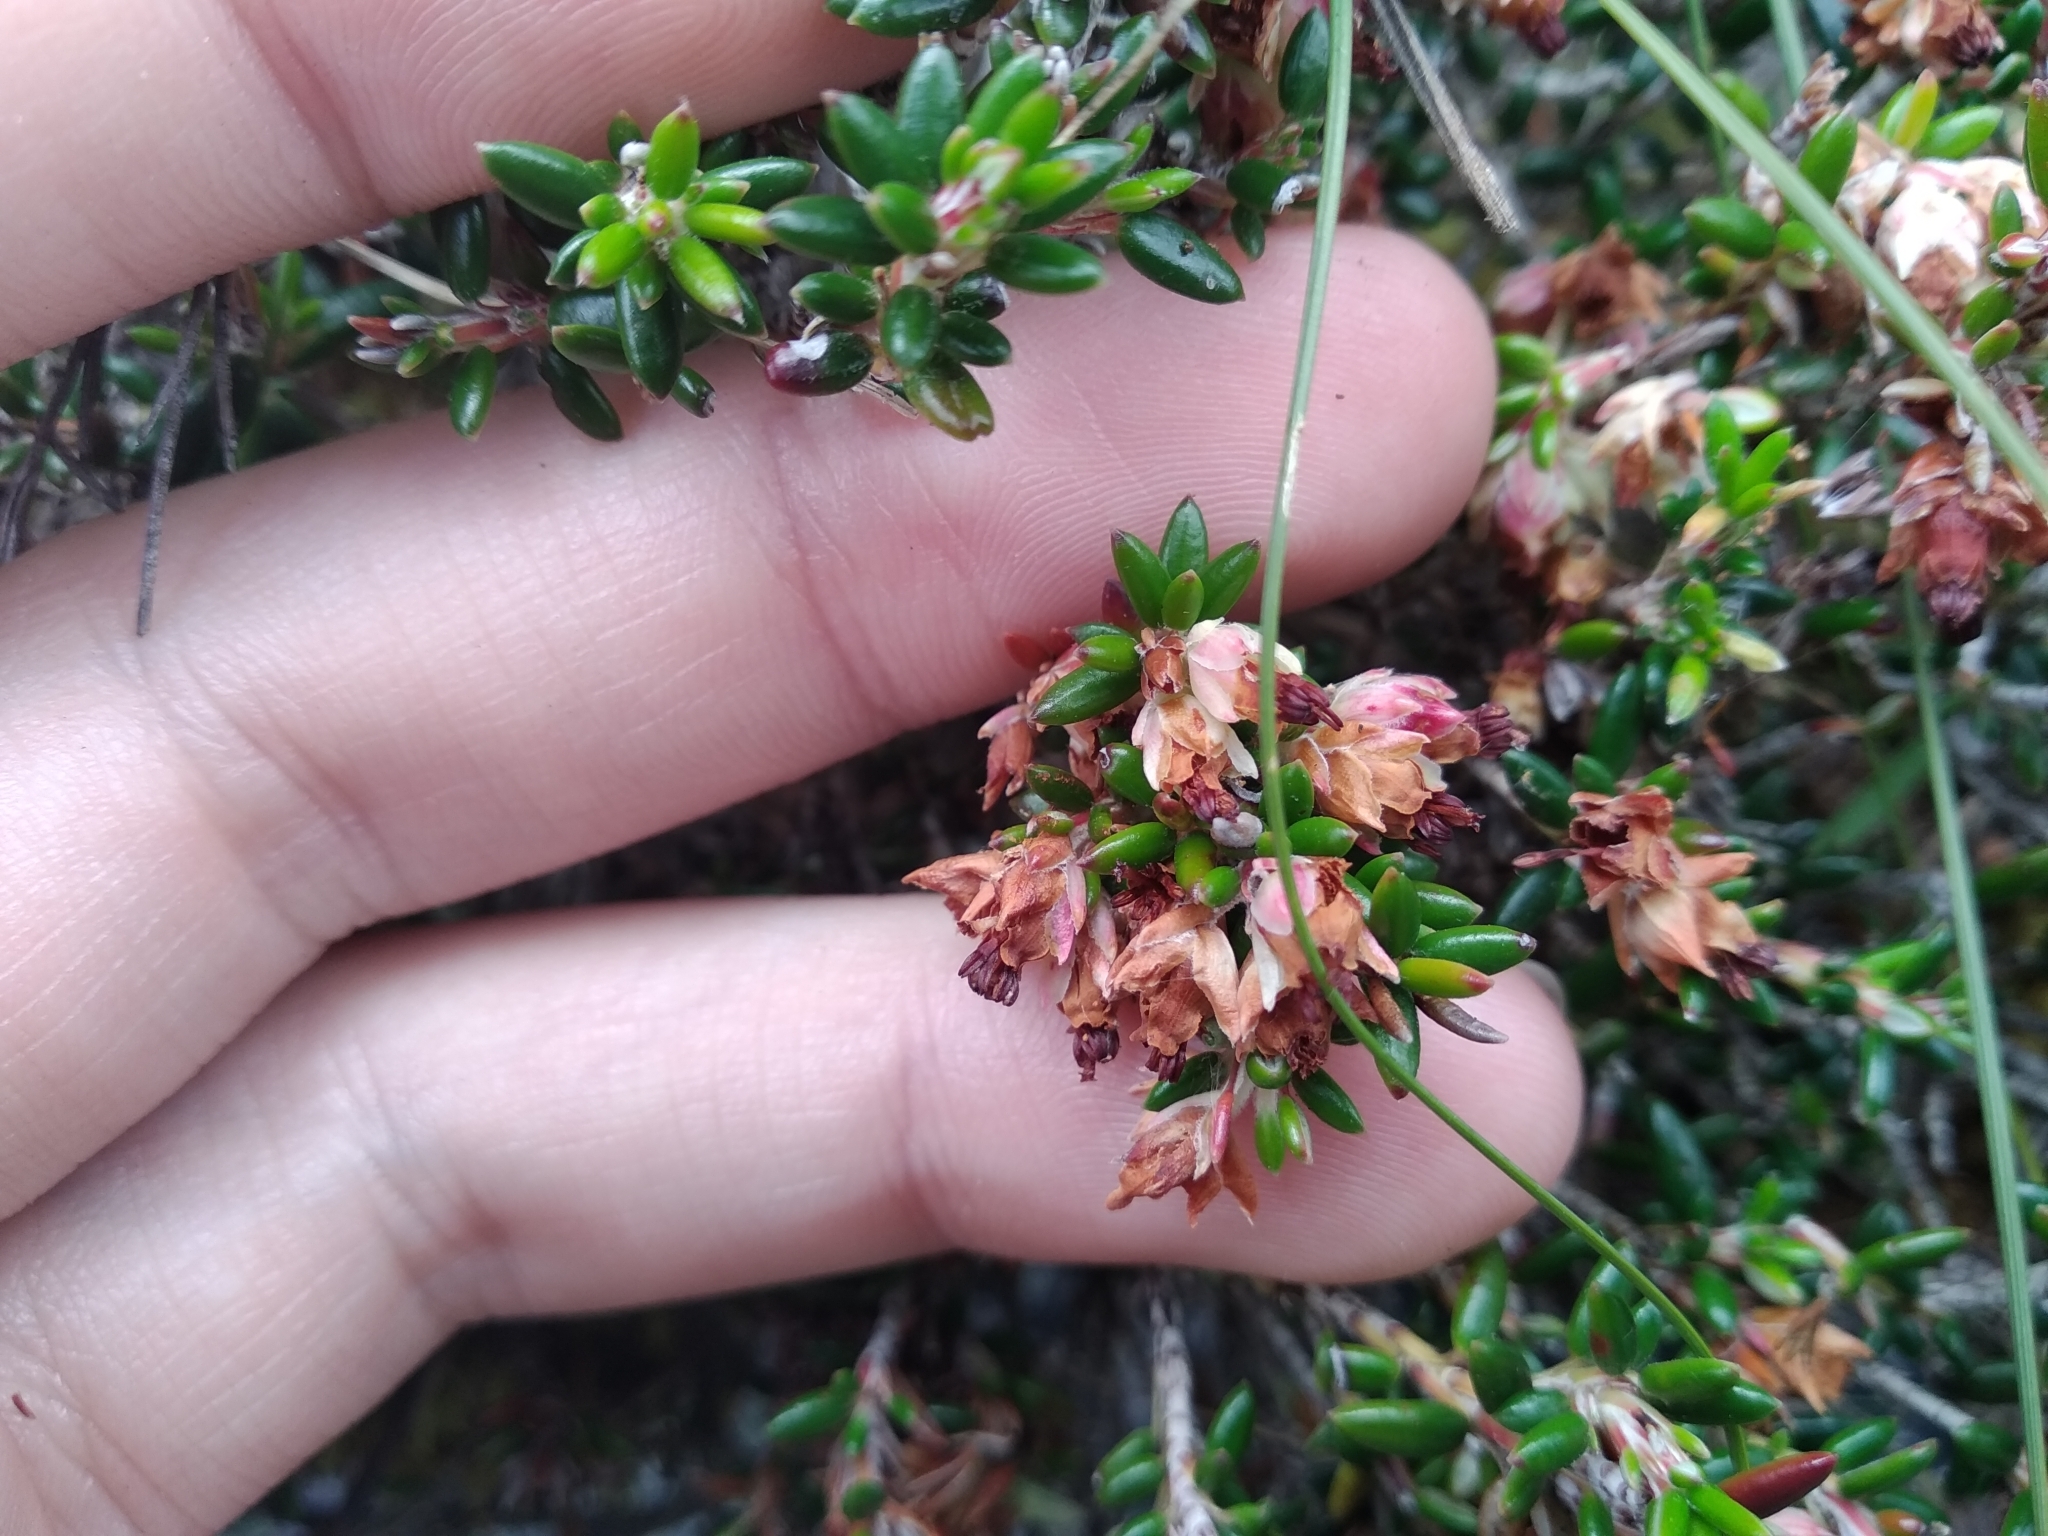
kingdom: Plantae
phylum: Tracheophyta
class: Magnoliopsida
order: Ericales
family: Ericaceae
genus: Erica
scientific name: Erica petiolaris
